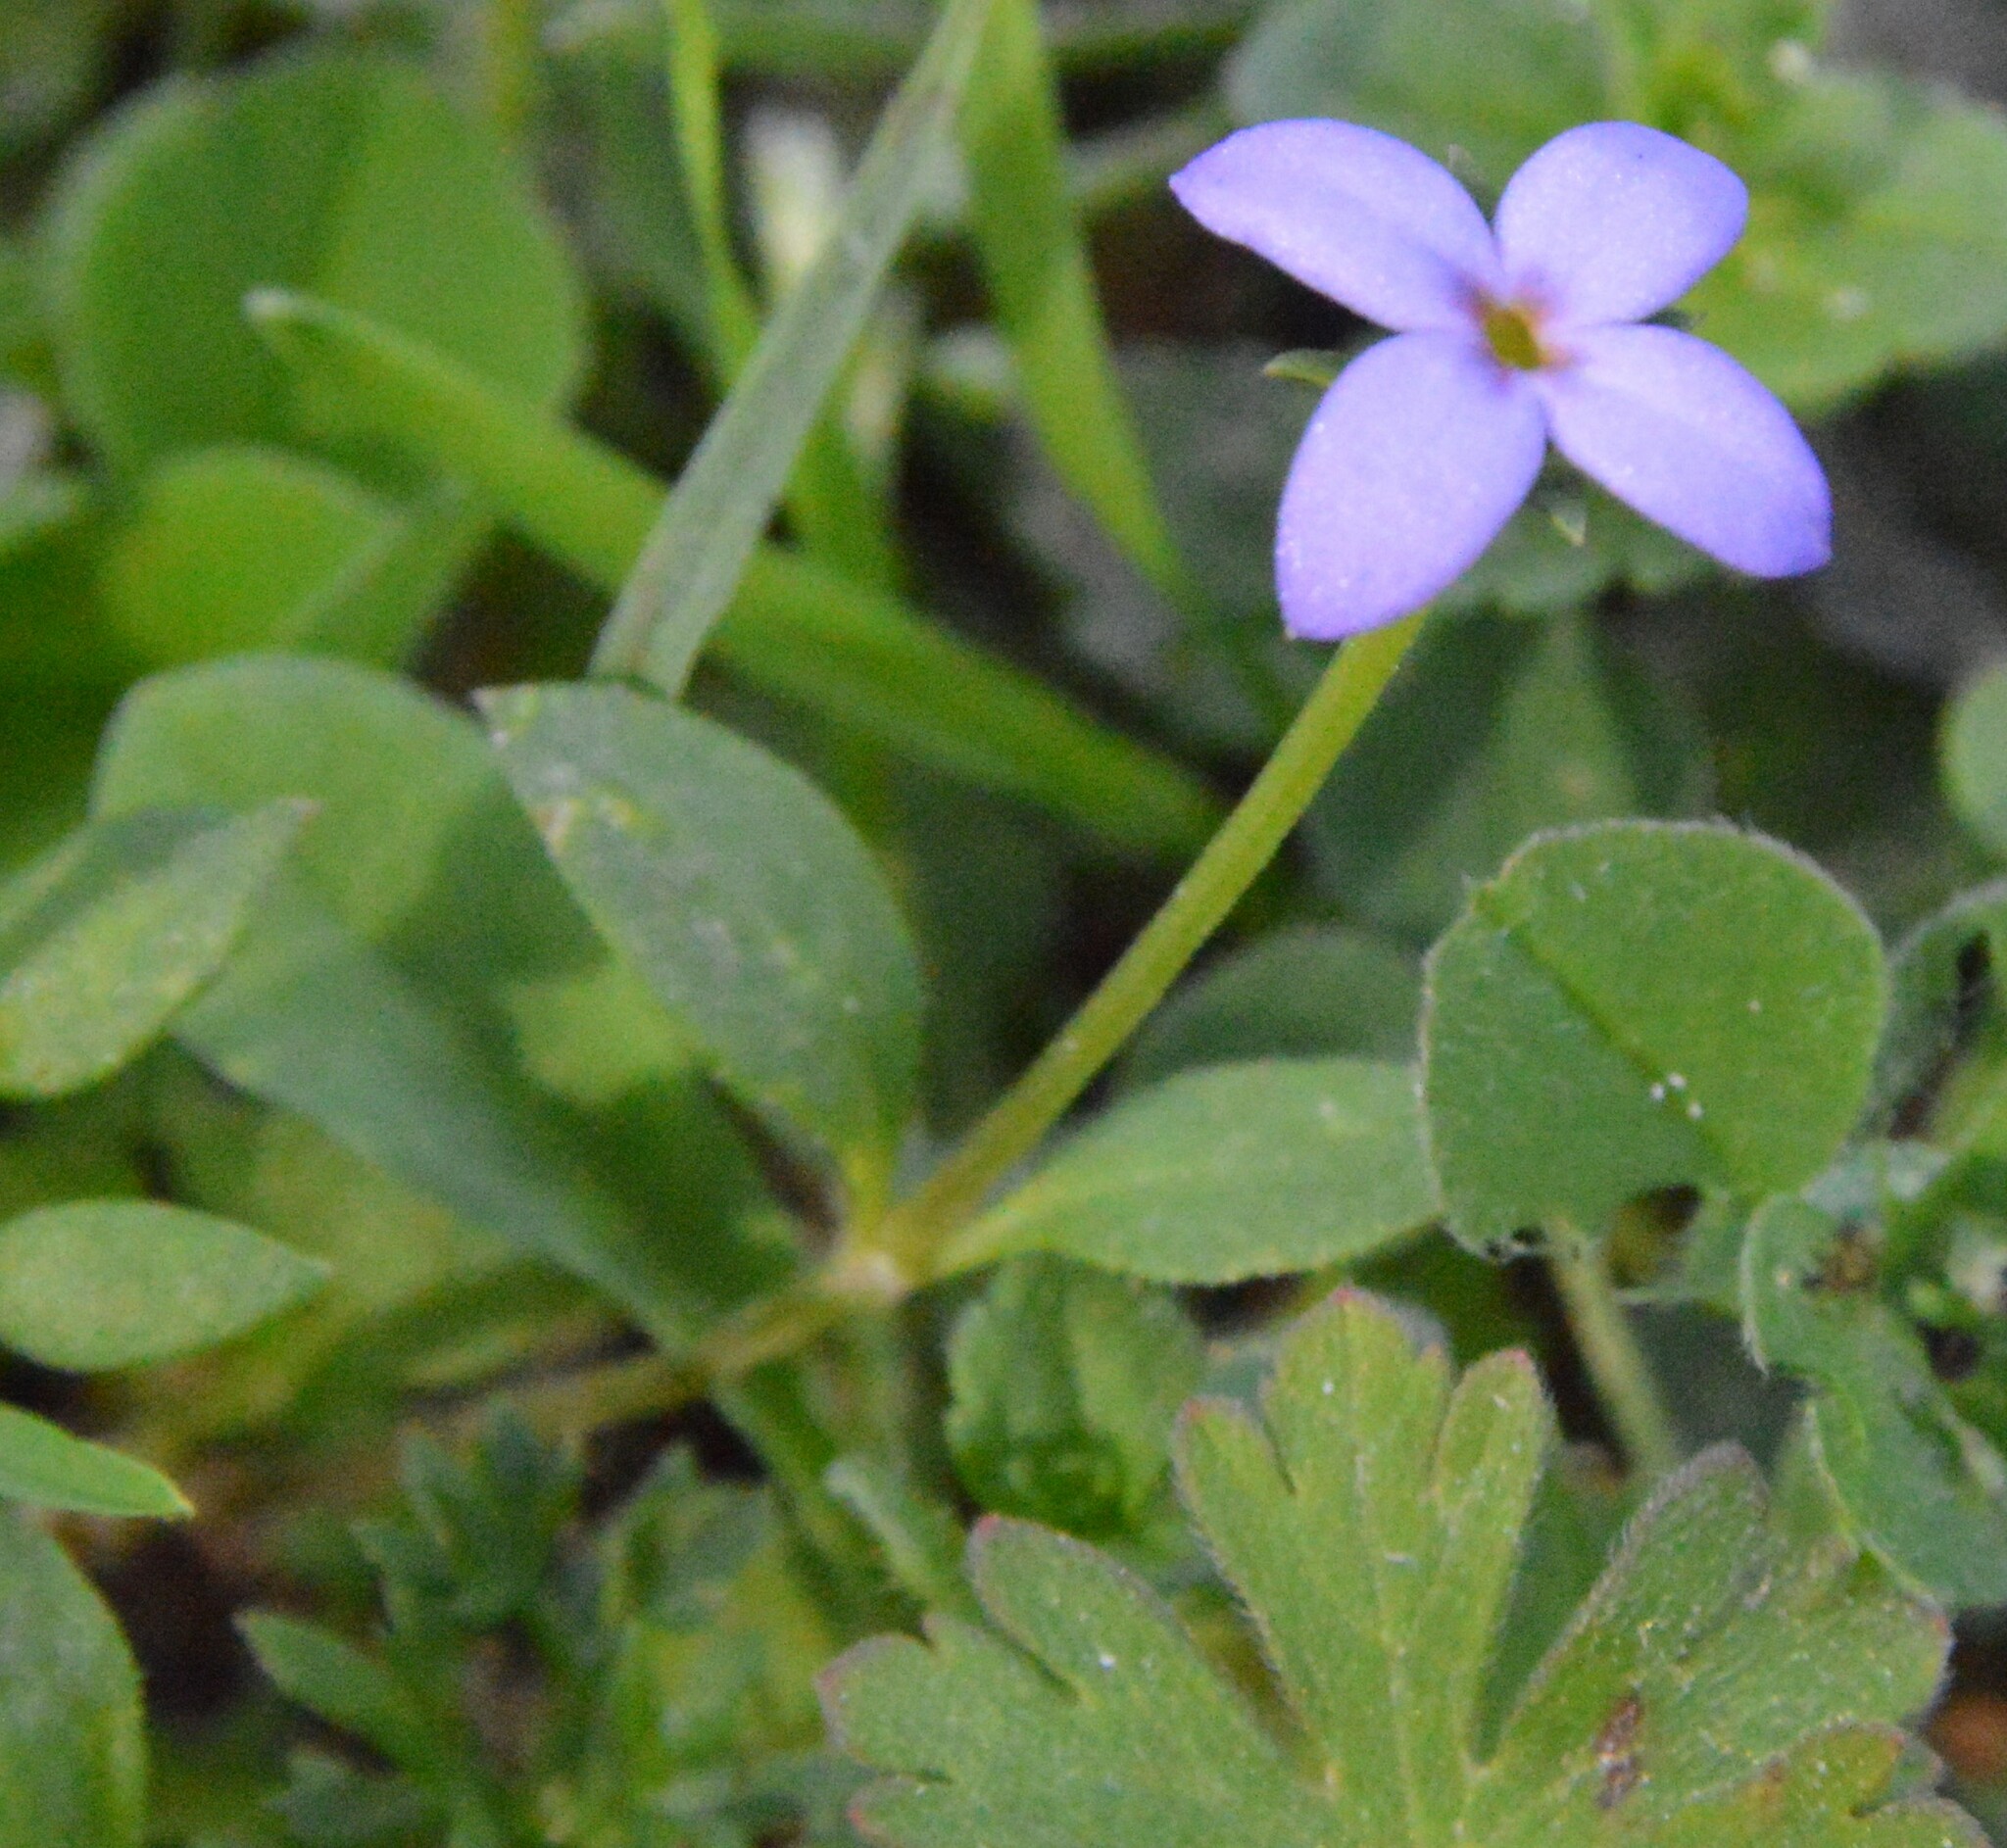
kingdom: Plantae
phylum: Tracheophyta
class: Magnoliopsida
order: Gentianales
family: Rubiaceae
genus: Houstonia
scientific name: Houstonia pusilla
